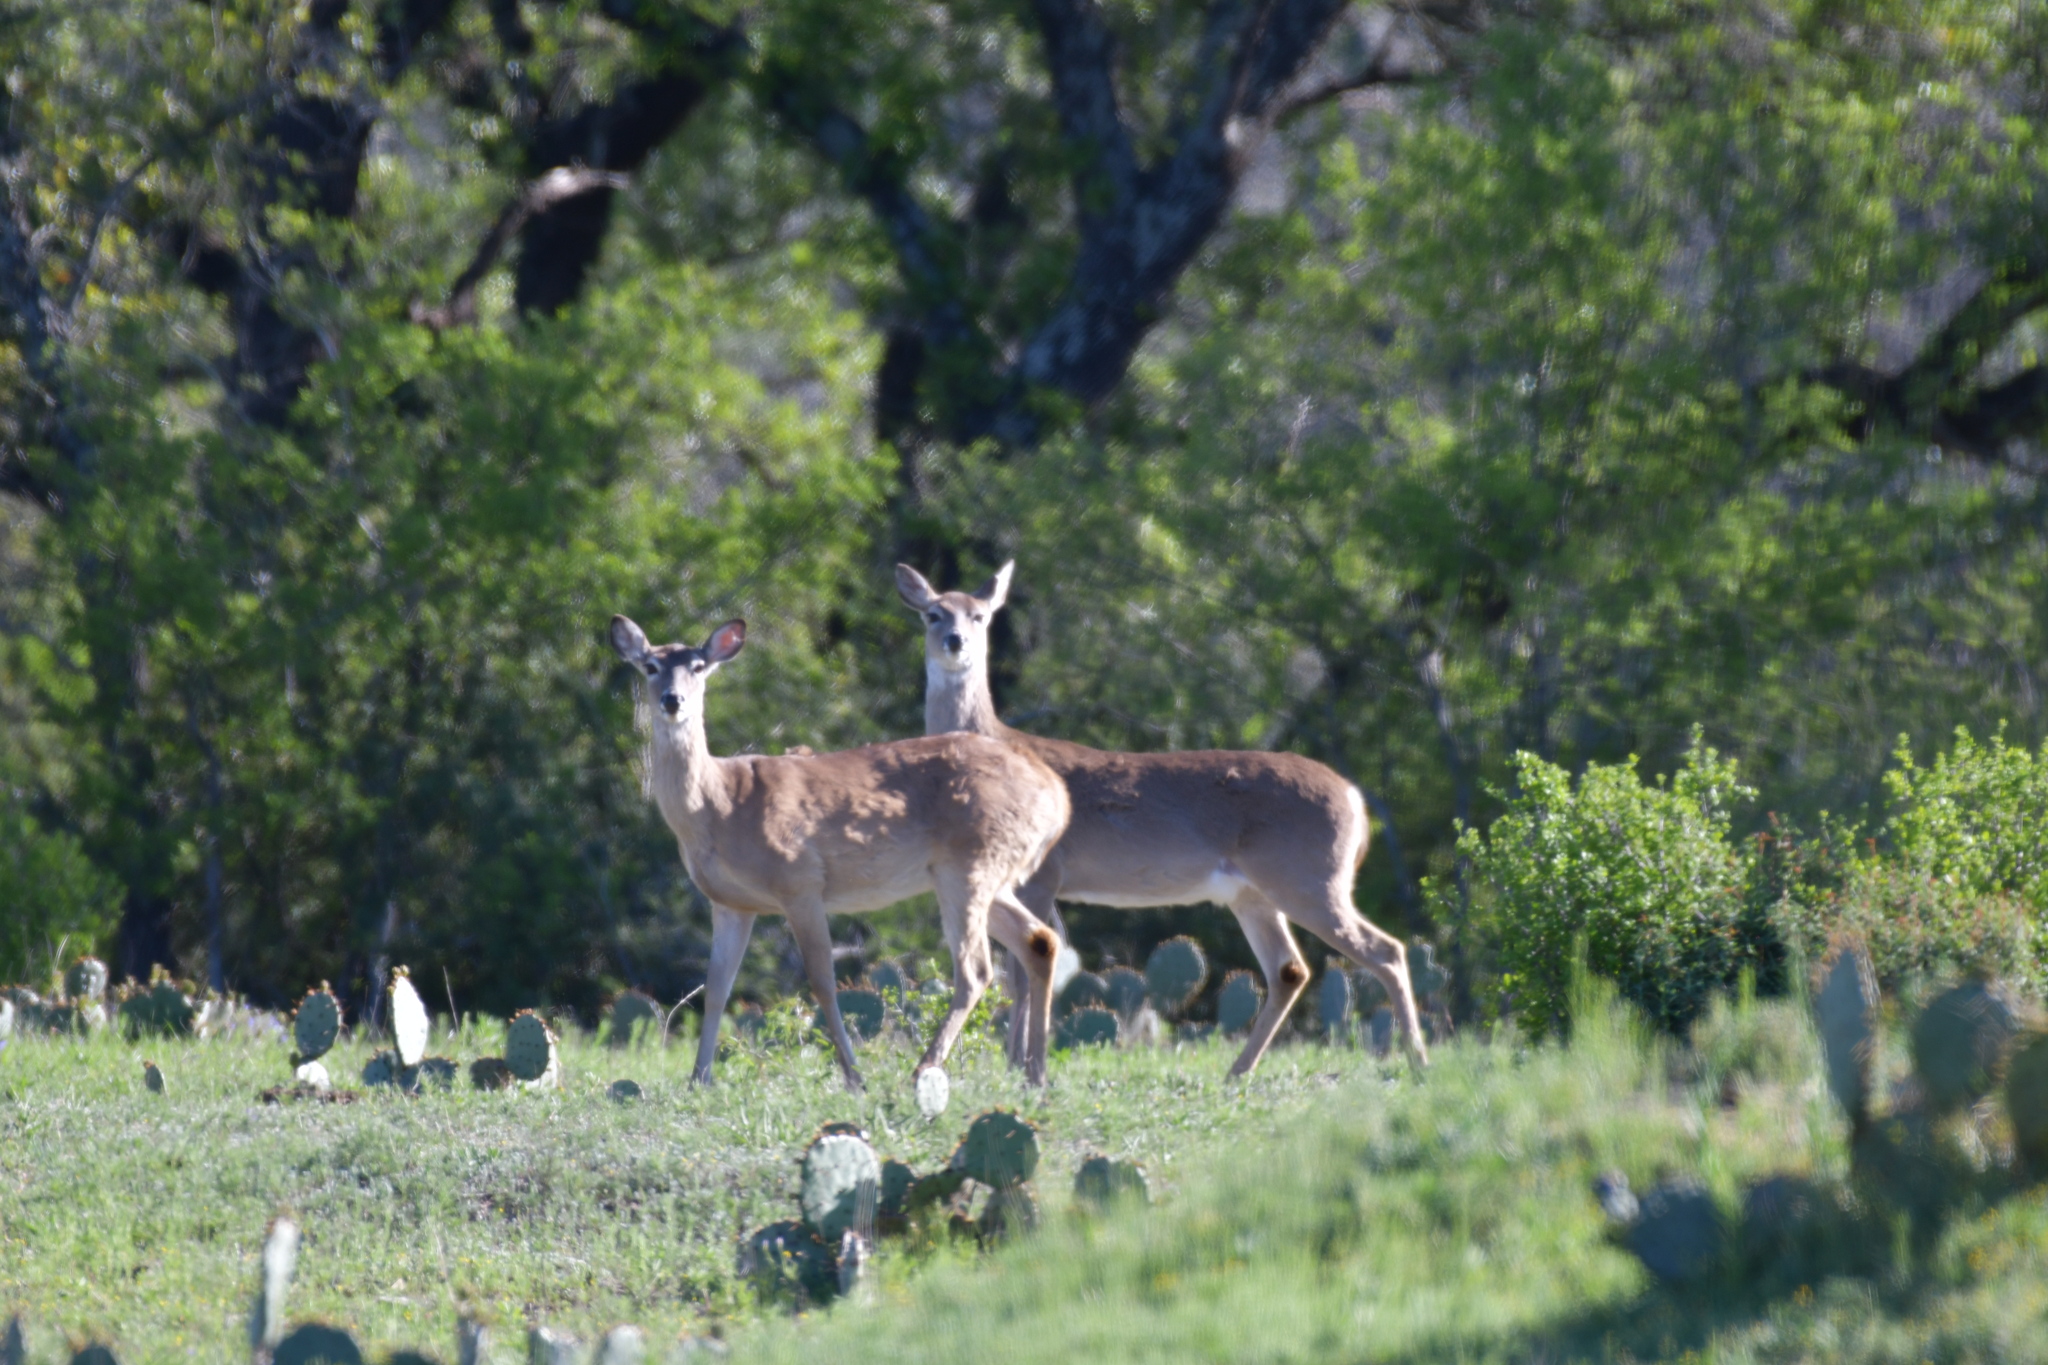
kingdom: Animalia
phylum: Chordata
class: Mammalia
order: Artiodactyla
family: Cervidae
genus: Odocoileus
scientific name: Odocoileus virginianus
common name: White-tailed deer
